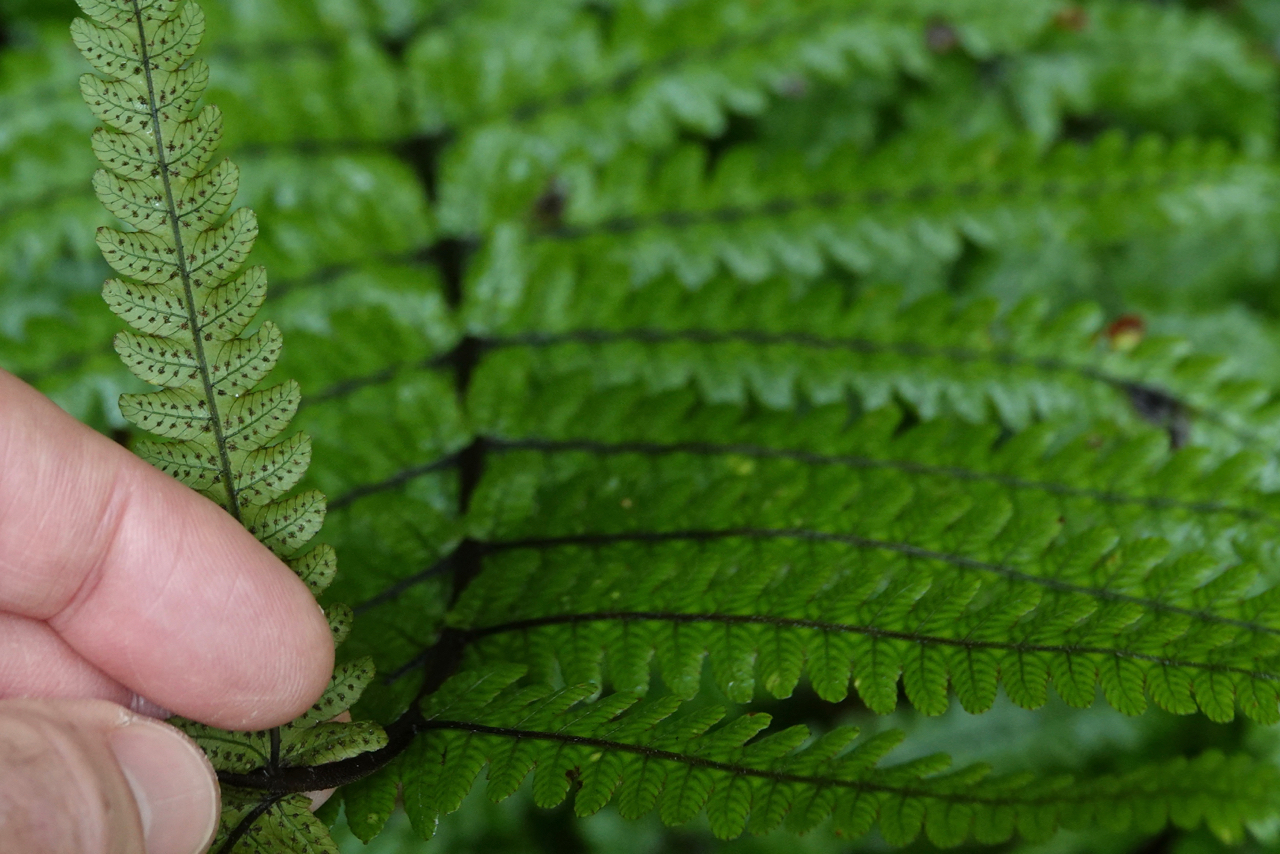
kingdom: Plantae
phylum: Tracheophyta
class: Polypodiopsida
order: Polypodiales
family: Thelypteridaceae
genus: Pakau
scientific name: Pakau pennigera
